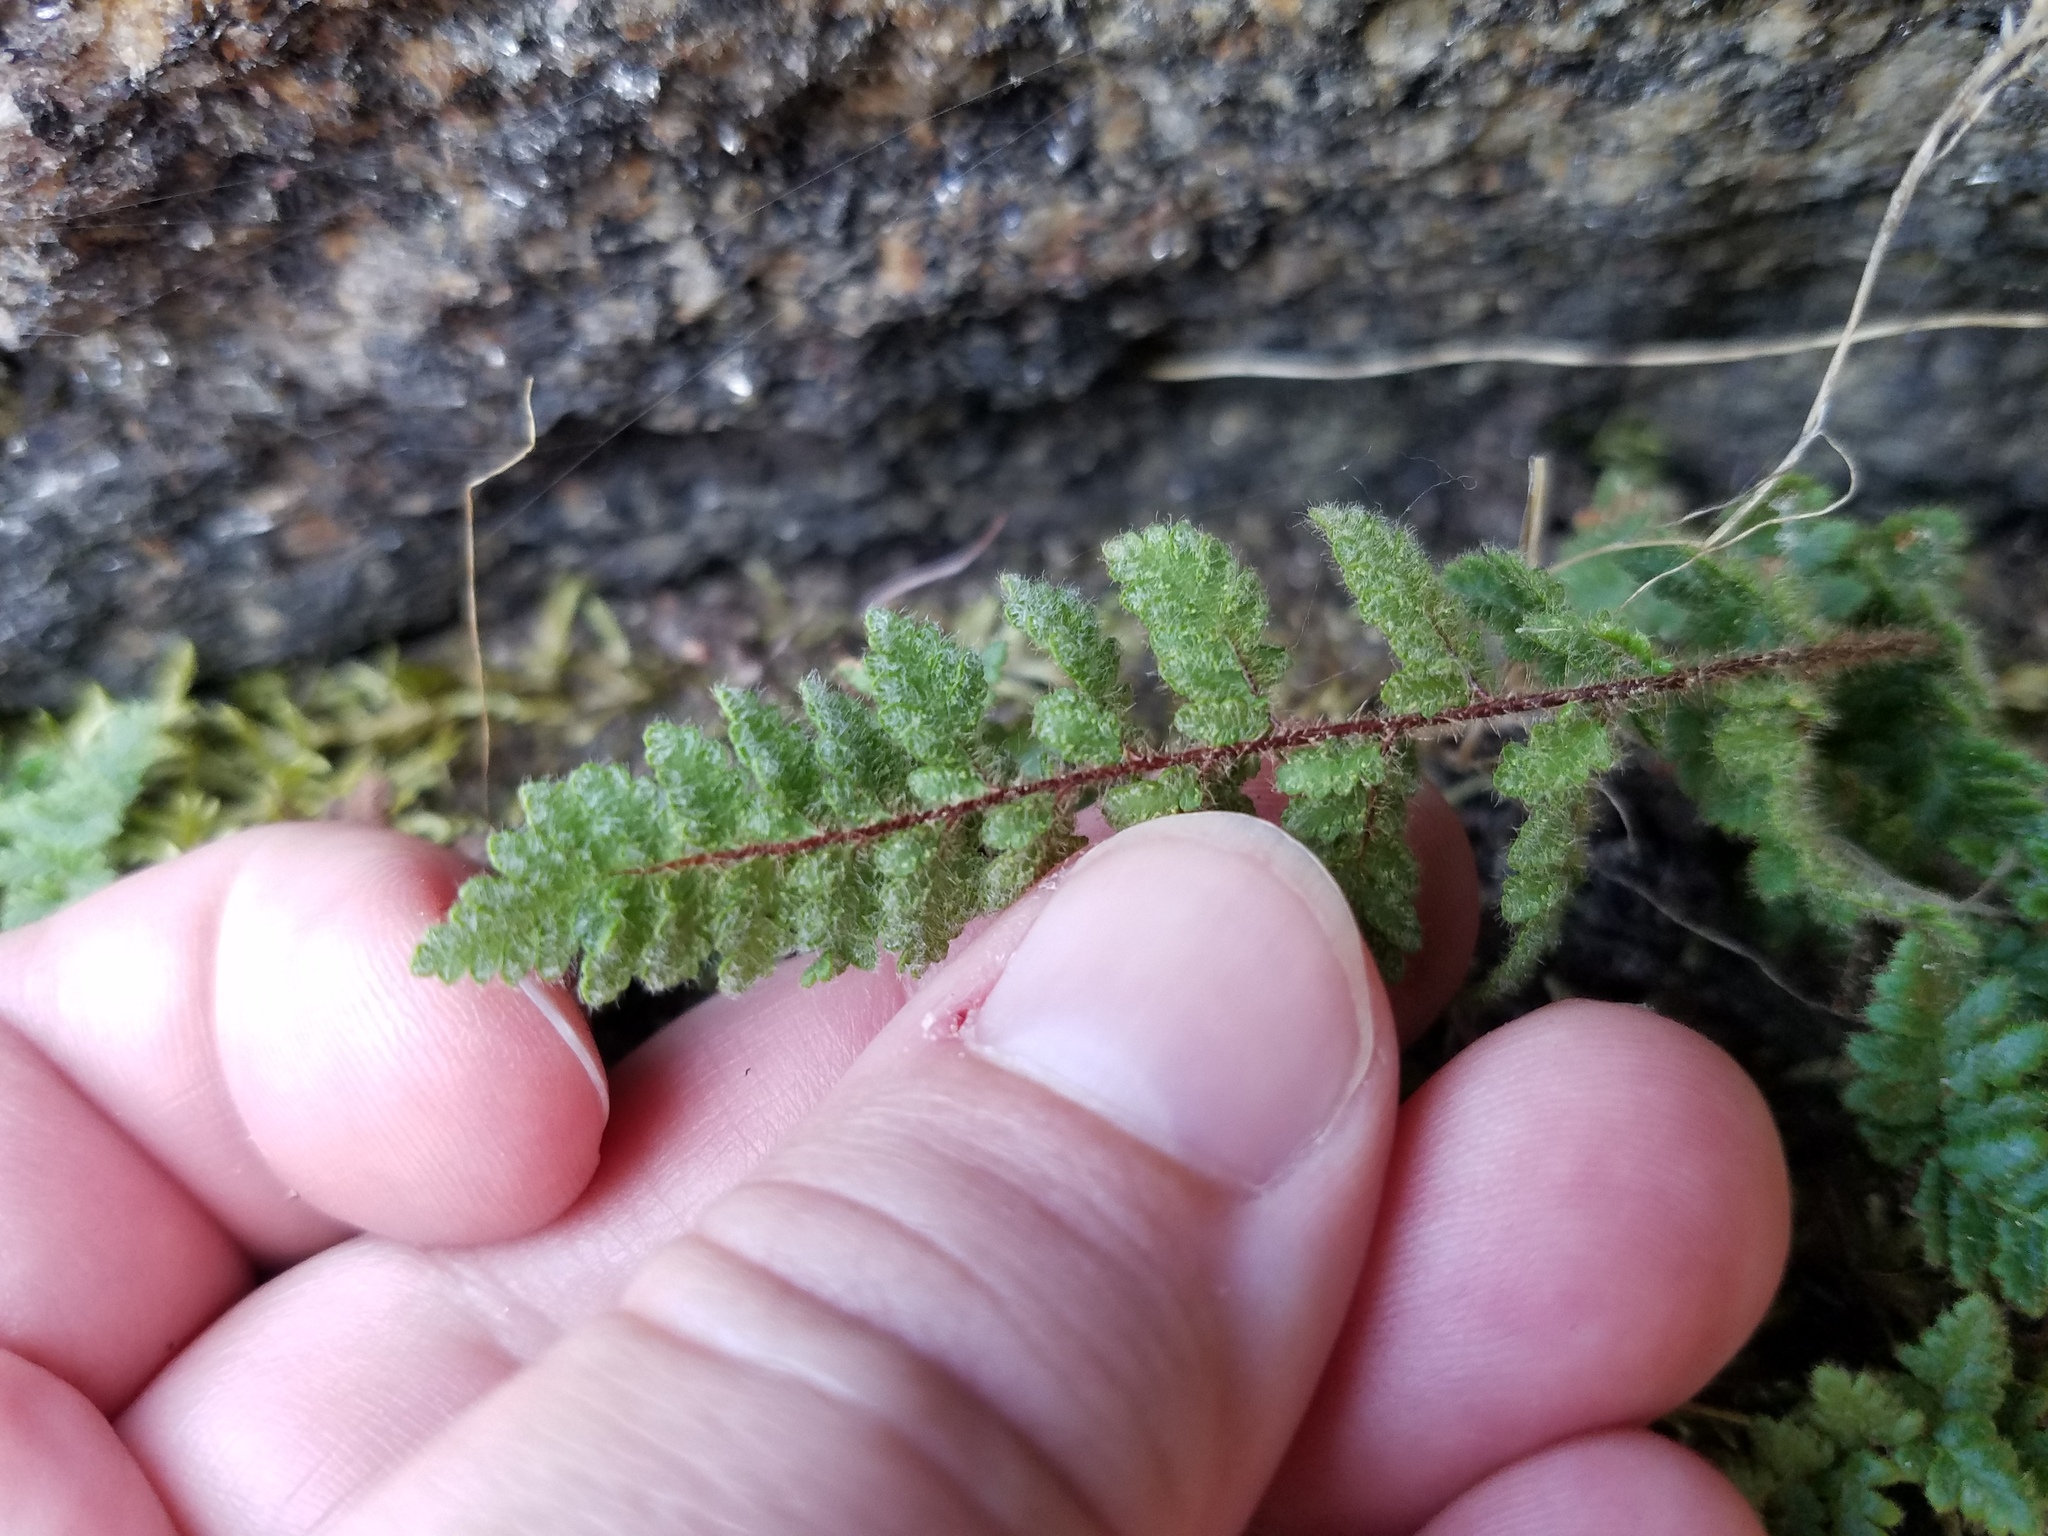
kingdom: Plantae
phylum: Tracheophyta
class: Polypodiopsida
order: Polypodiales
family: Pteridaceae
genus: Myriopteris
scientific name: Myriopteris lanosa
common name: Hairy lip fern
